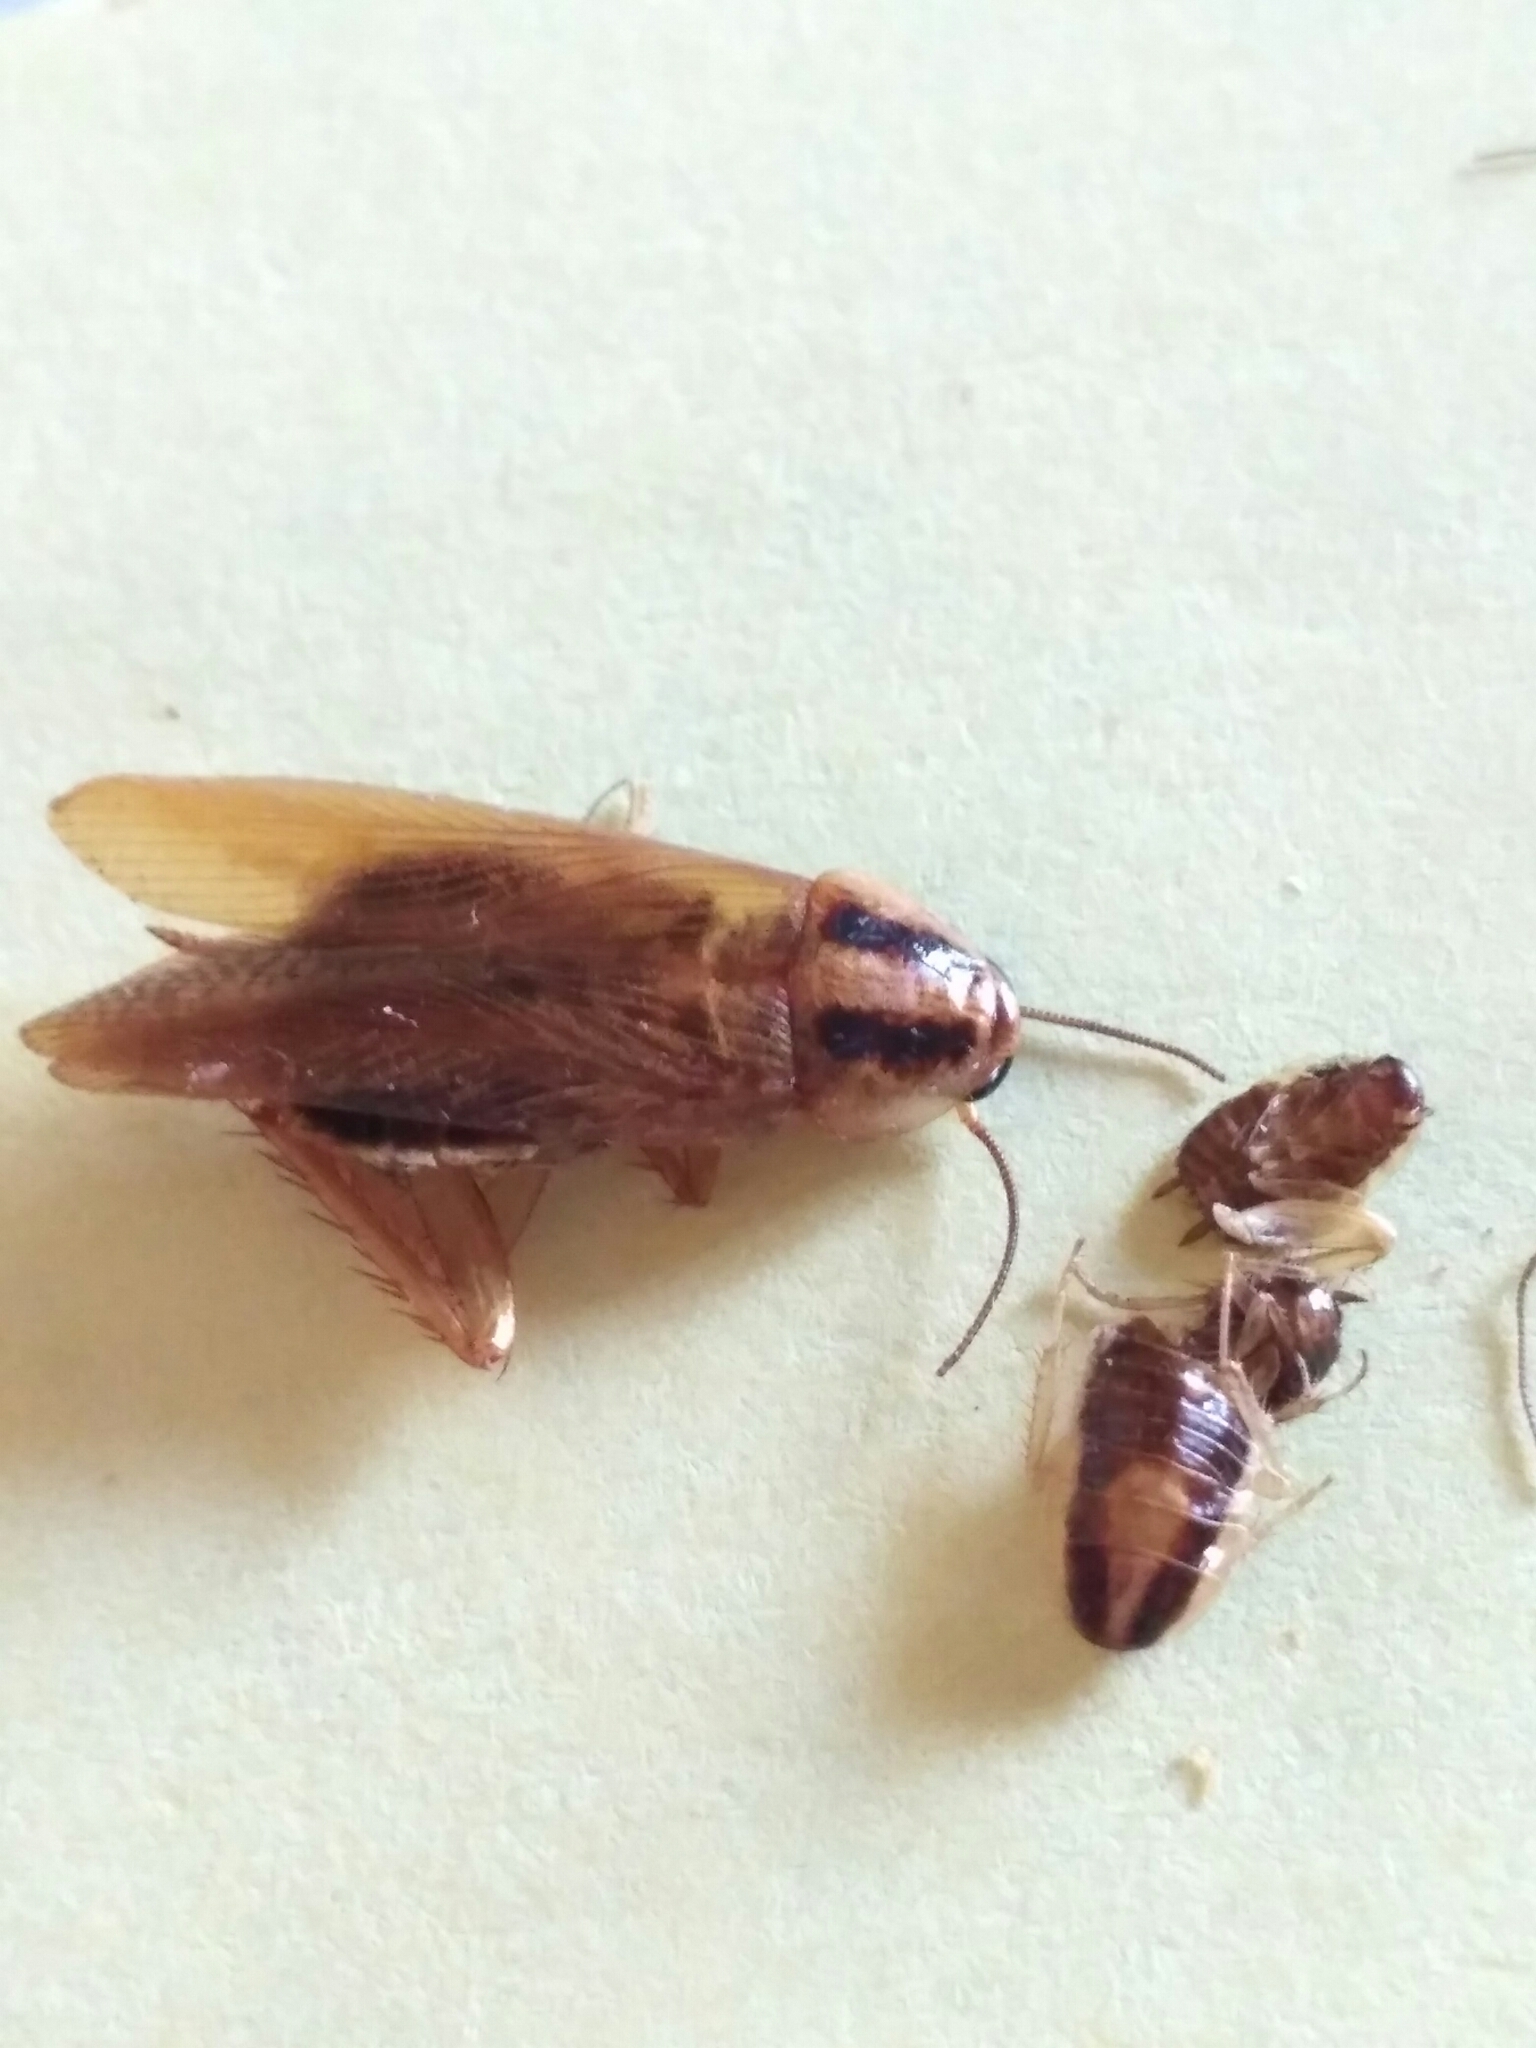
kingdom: Animalia
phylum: Arthropoda
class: Insecta
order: Blattodea
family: Ectobiidae
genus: Blattella
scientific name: Blattella germanica
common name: German cockroach
